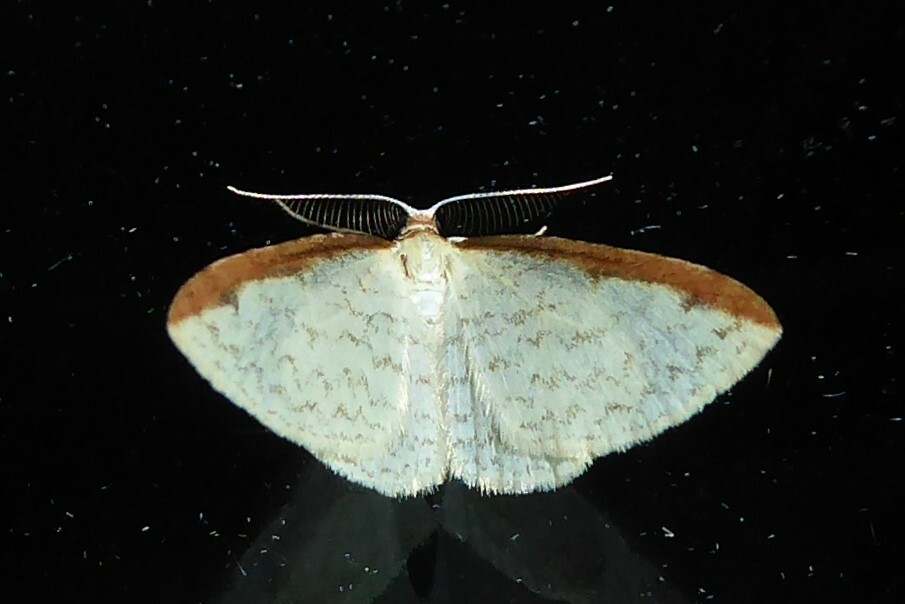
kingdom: Animalia
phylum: Arthropoda
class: Insecta
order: Lepidoptera
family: Geometridae
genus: Epiphryne
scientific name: Epiphryne undosata
